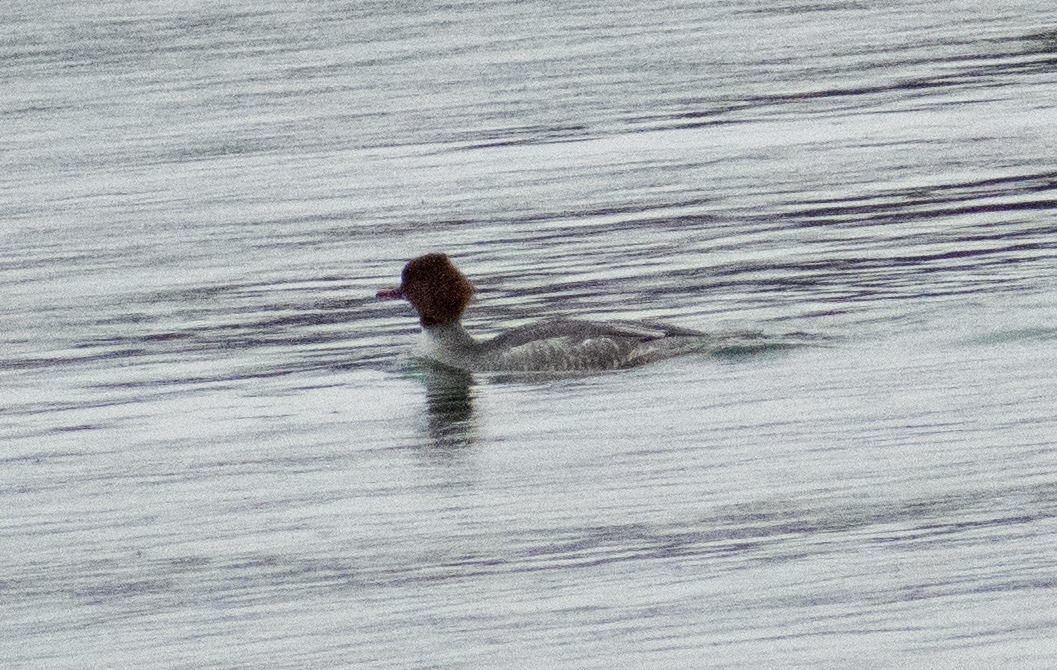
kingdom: Animalia
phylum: Chordata
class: Aves
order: Anseriformes
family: Anatidae
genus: Mergus
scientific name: Mergus merganser
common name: Common merganser
